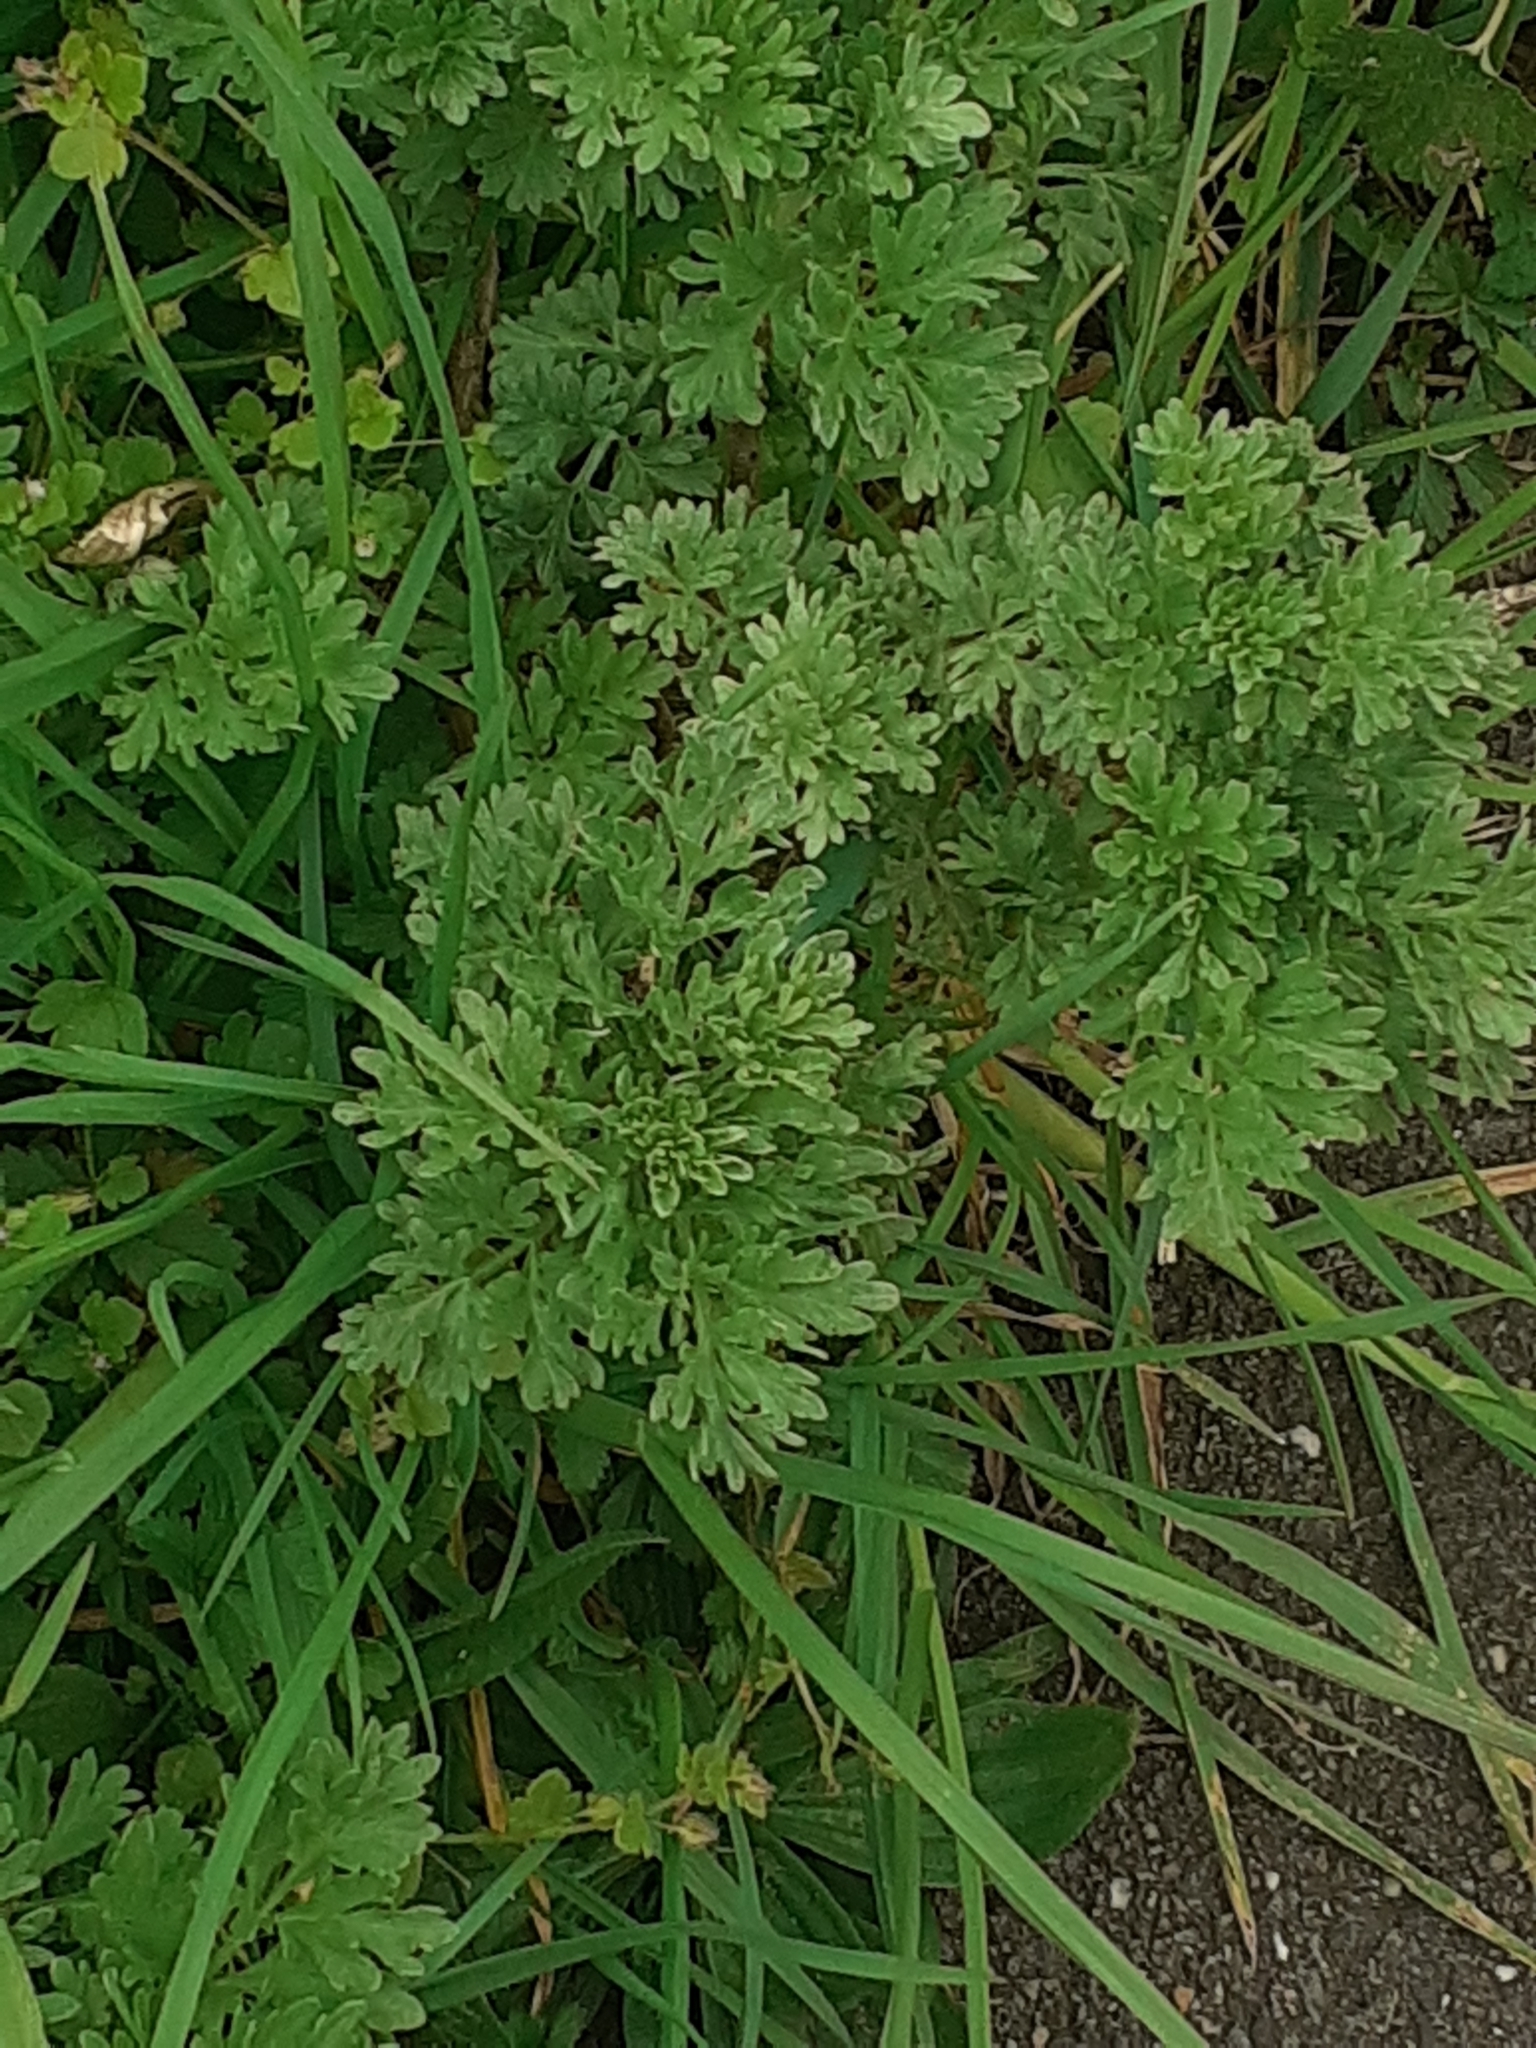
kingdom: Plantae
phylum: Tracheophyta
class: Magnoliopsida
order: Asterales
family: Asteraceae
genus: Artemisia
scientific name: Artemisia absinthium
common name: Wormwood
